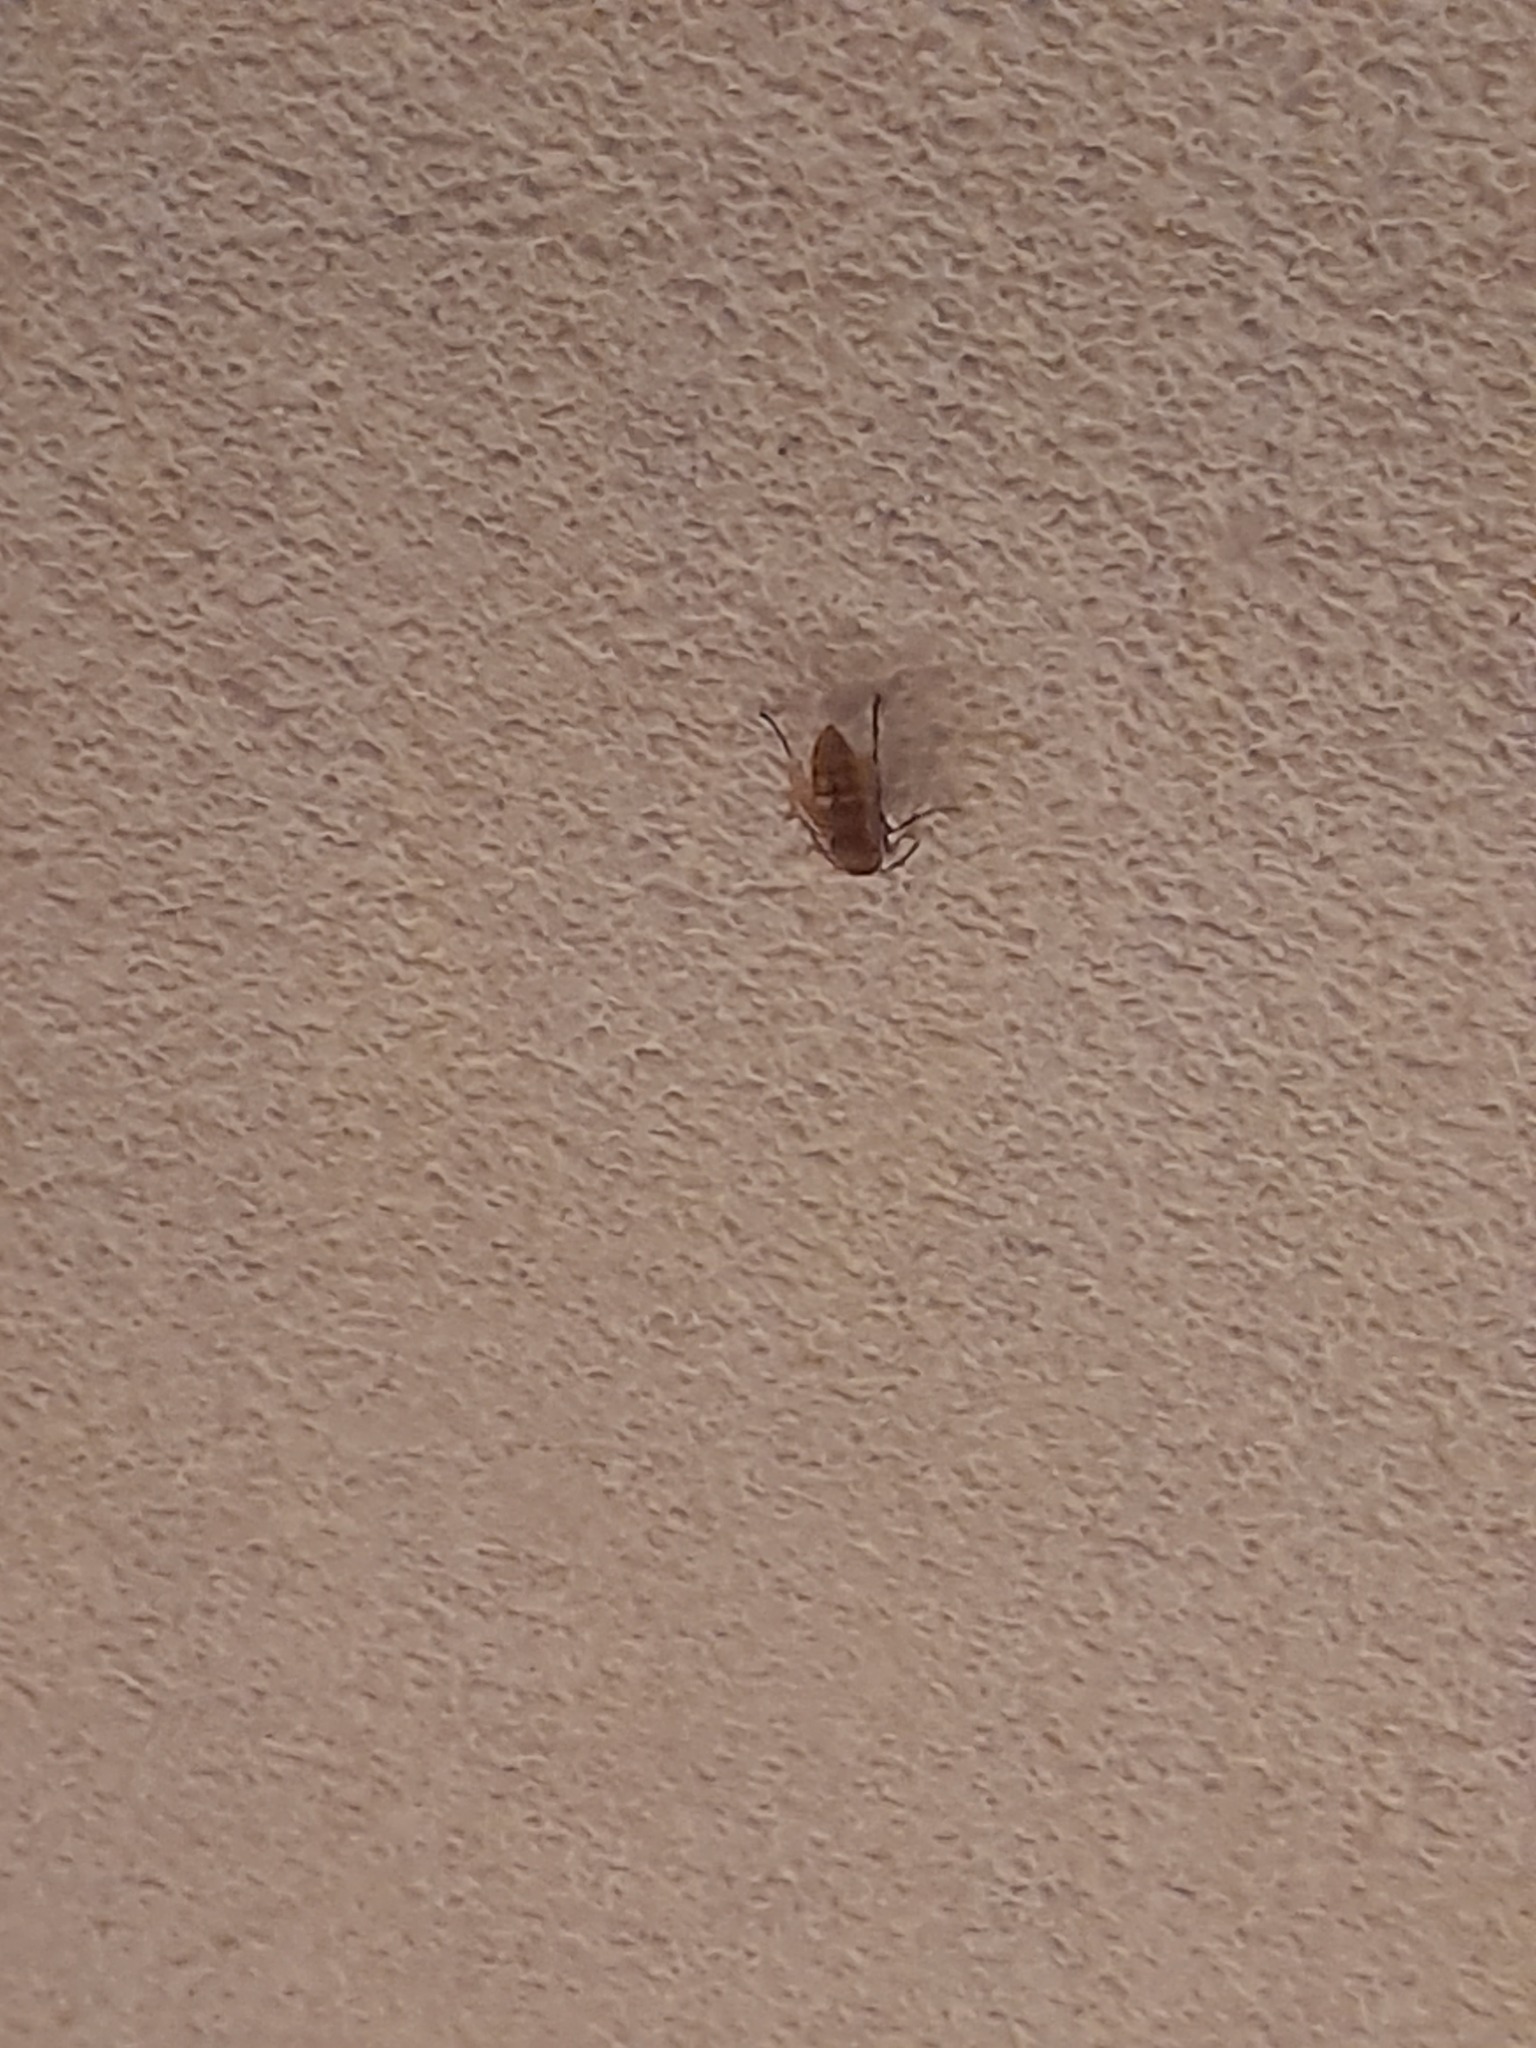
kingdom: Animalia
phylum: Arthropoda
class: Insecta
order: Hymenoptera
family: Vespidae
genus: Vespa
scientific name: Vespa crabro
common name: Hornet
